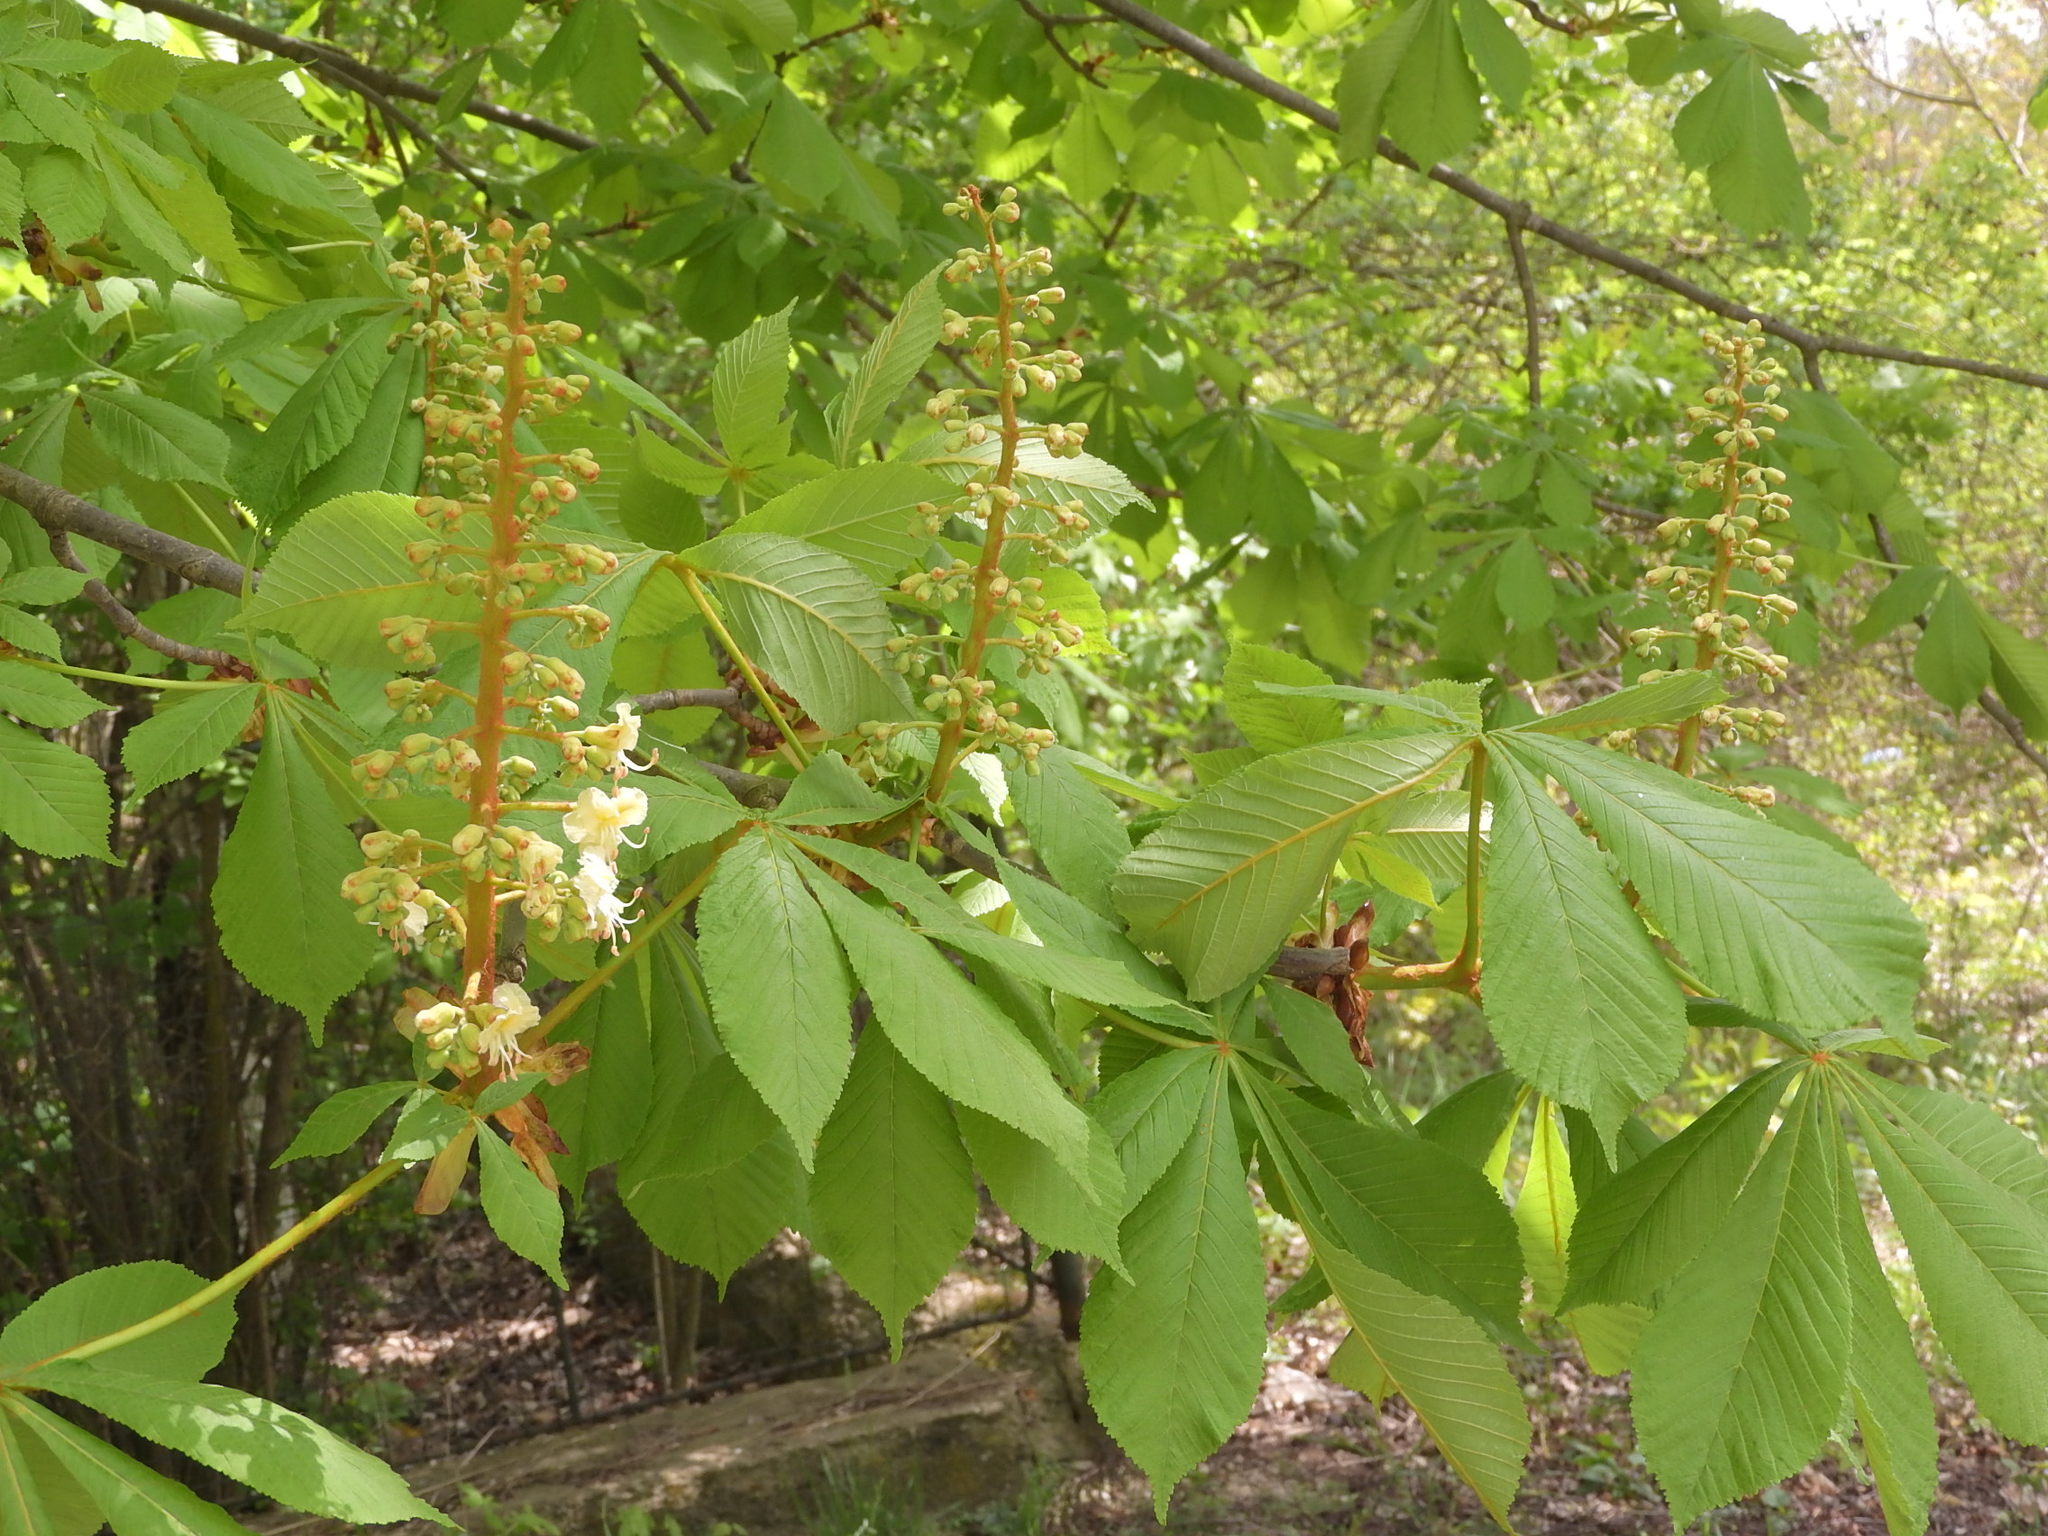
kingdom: Plantae
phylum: Tracheophyta
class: Magnoliopsida
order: Sapindales
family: Sapindaceae
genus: Aesculus
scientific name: Aesculus hippocastanum
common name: Horse-chestnut
